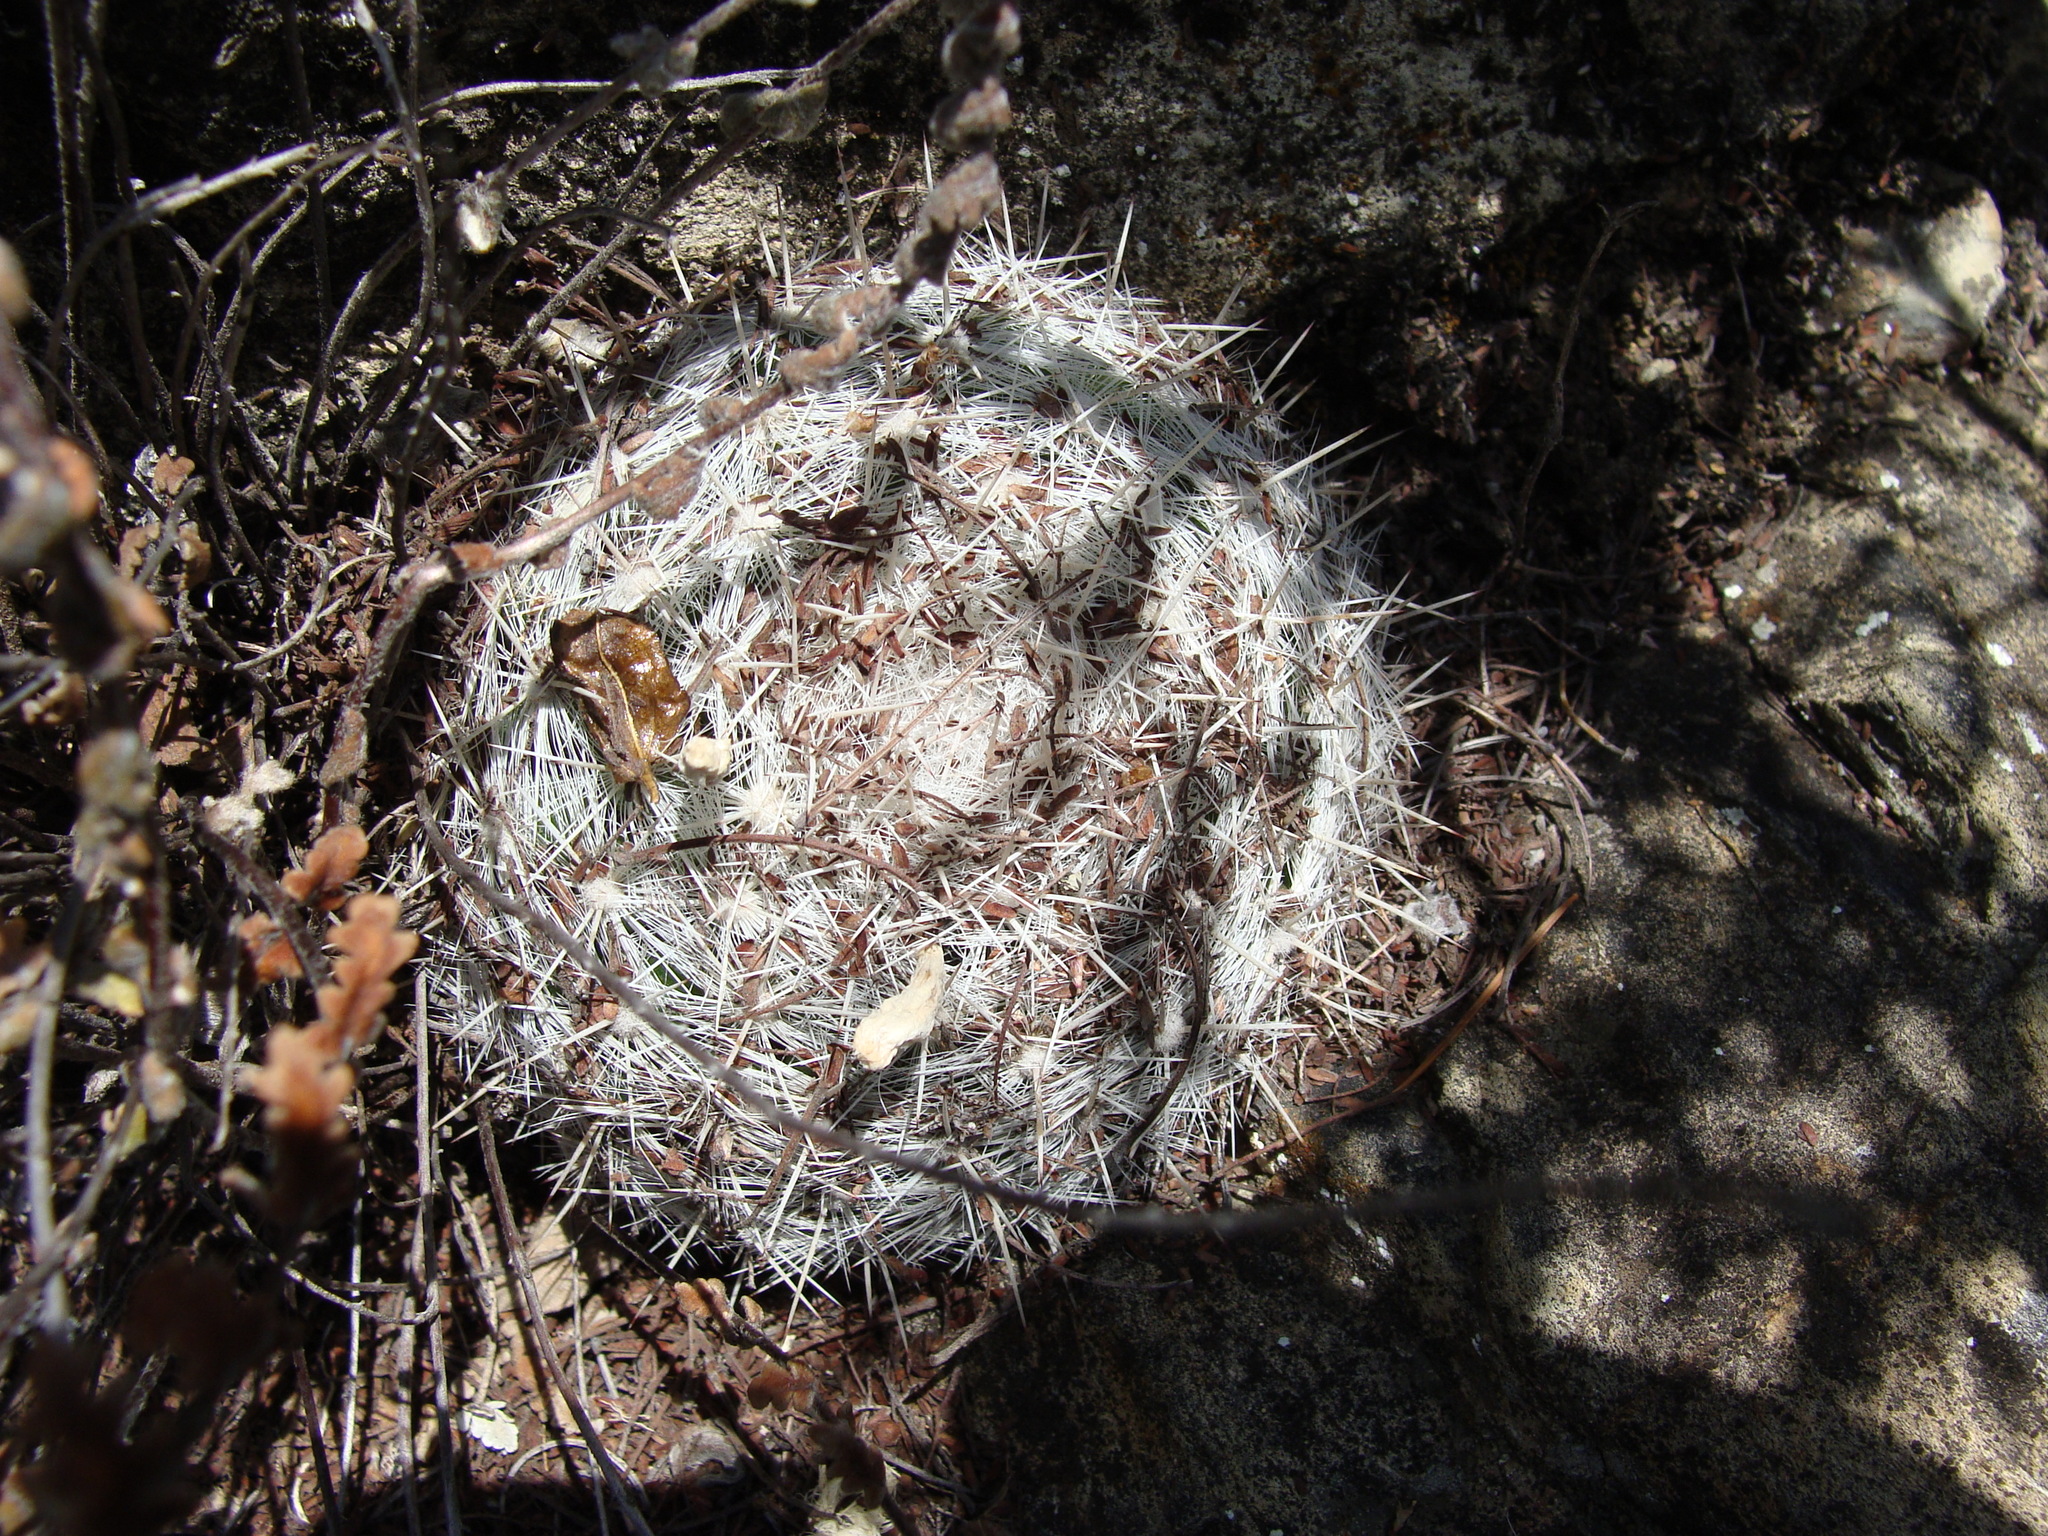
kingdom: Plantae
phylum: Tracheophyta
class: Magnoliopsida
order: Caryophyllales
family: Cactaceae
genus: Mammillaria
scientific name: Mammillaria candida
